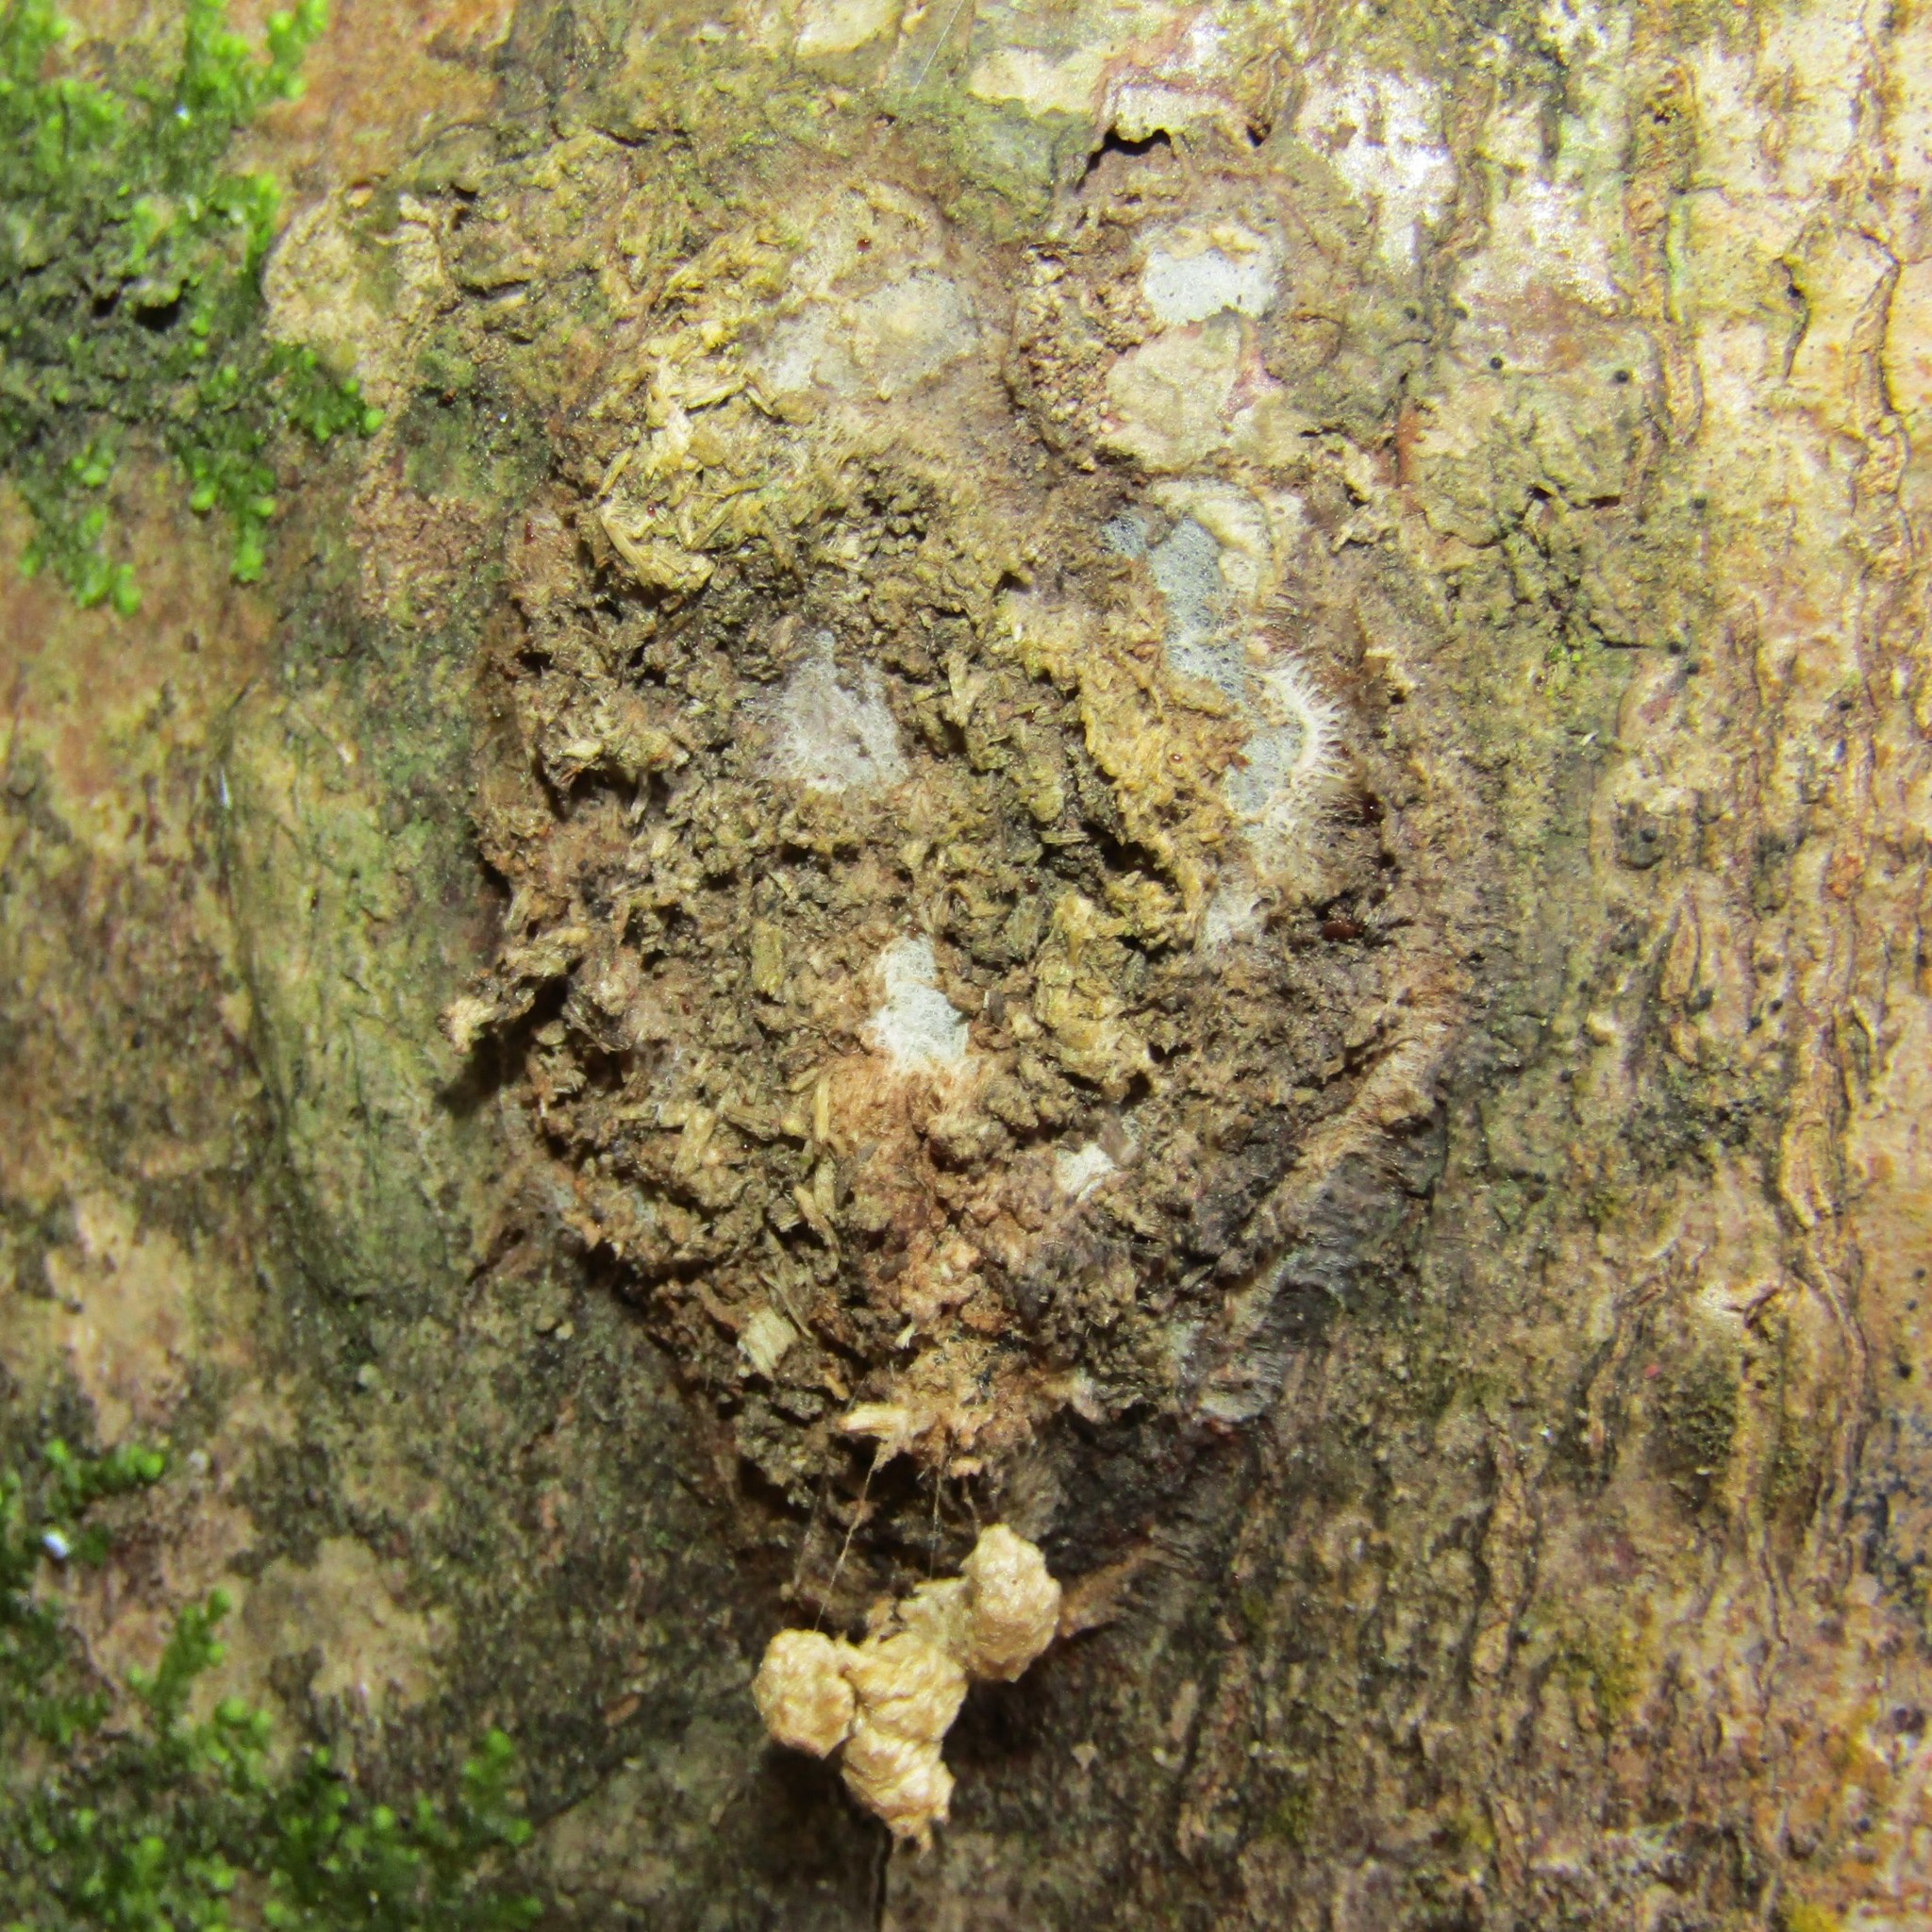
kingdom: Animalia
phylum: Arthropoda
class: Insecta
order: Lepidoptera
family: Hepialidae
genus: Aenetus
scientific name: Aenetus virescens
